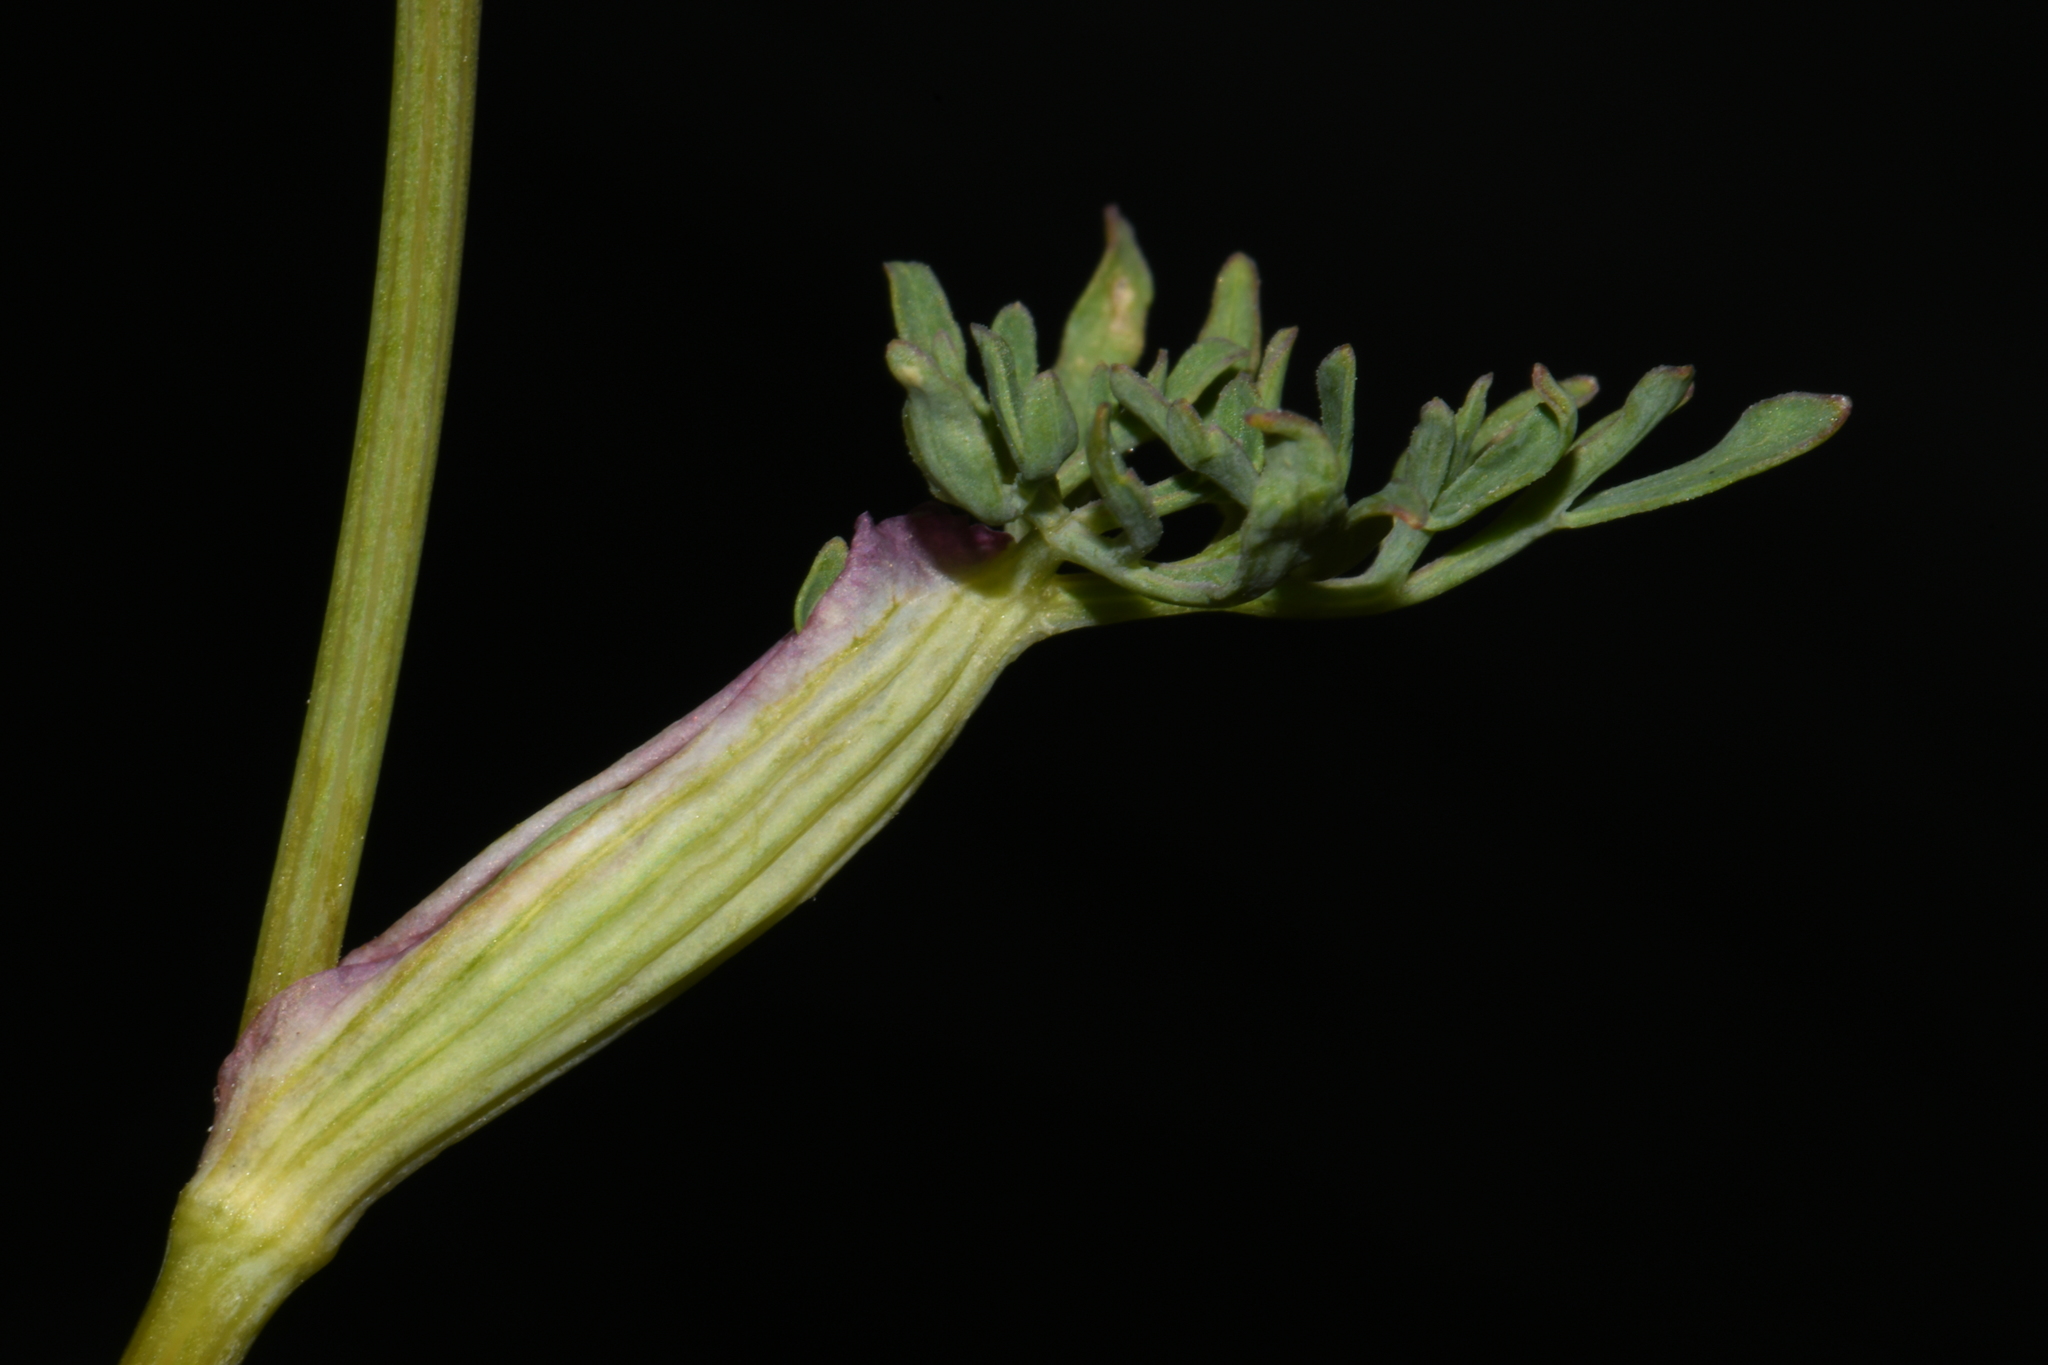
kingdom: Plantae
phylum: Tracheophyta
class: Magnoliopsida
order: Apiales
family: Apiaceae
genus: Lomatium
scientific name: Lomatium ambiguum
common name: Lacy lomatium
